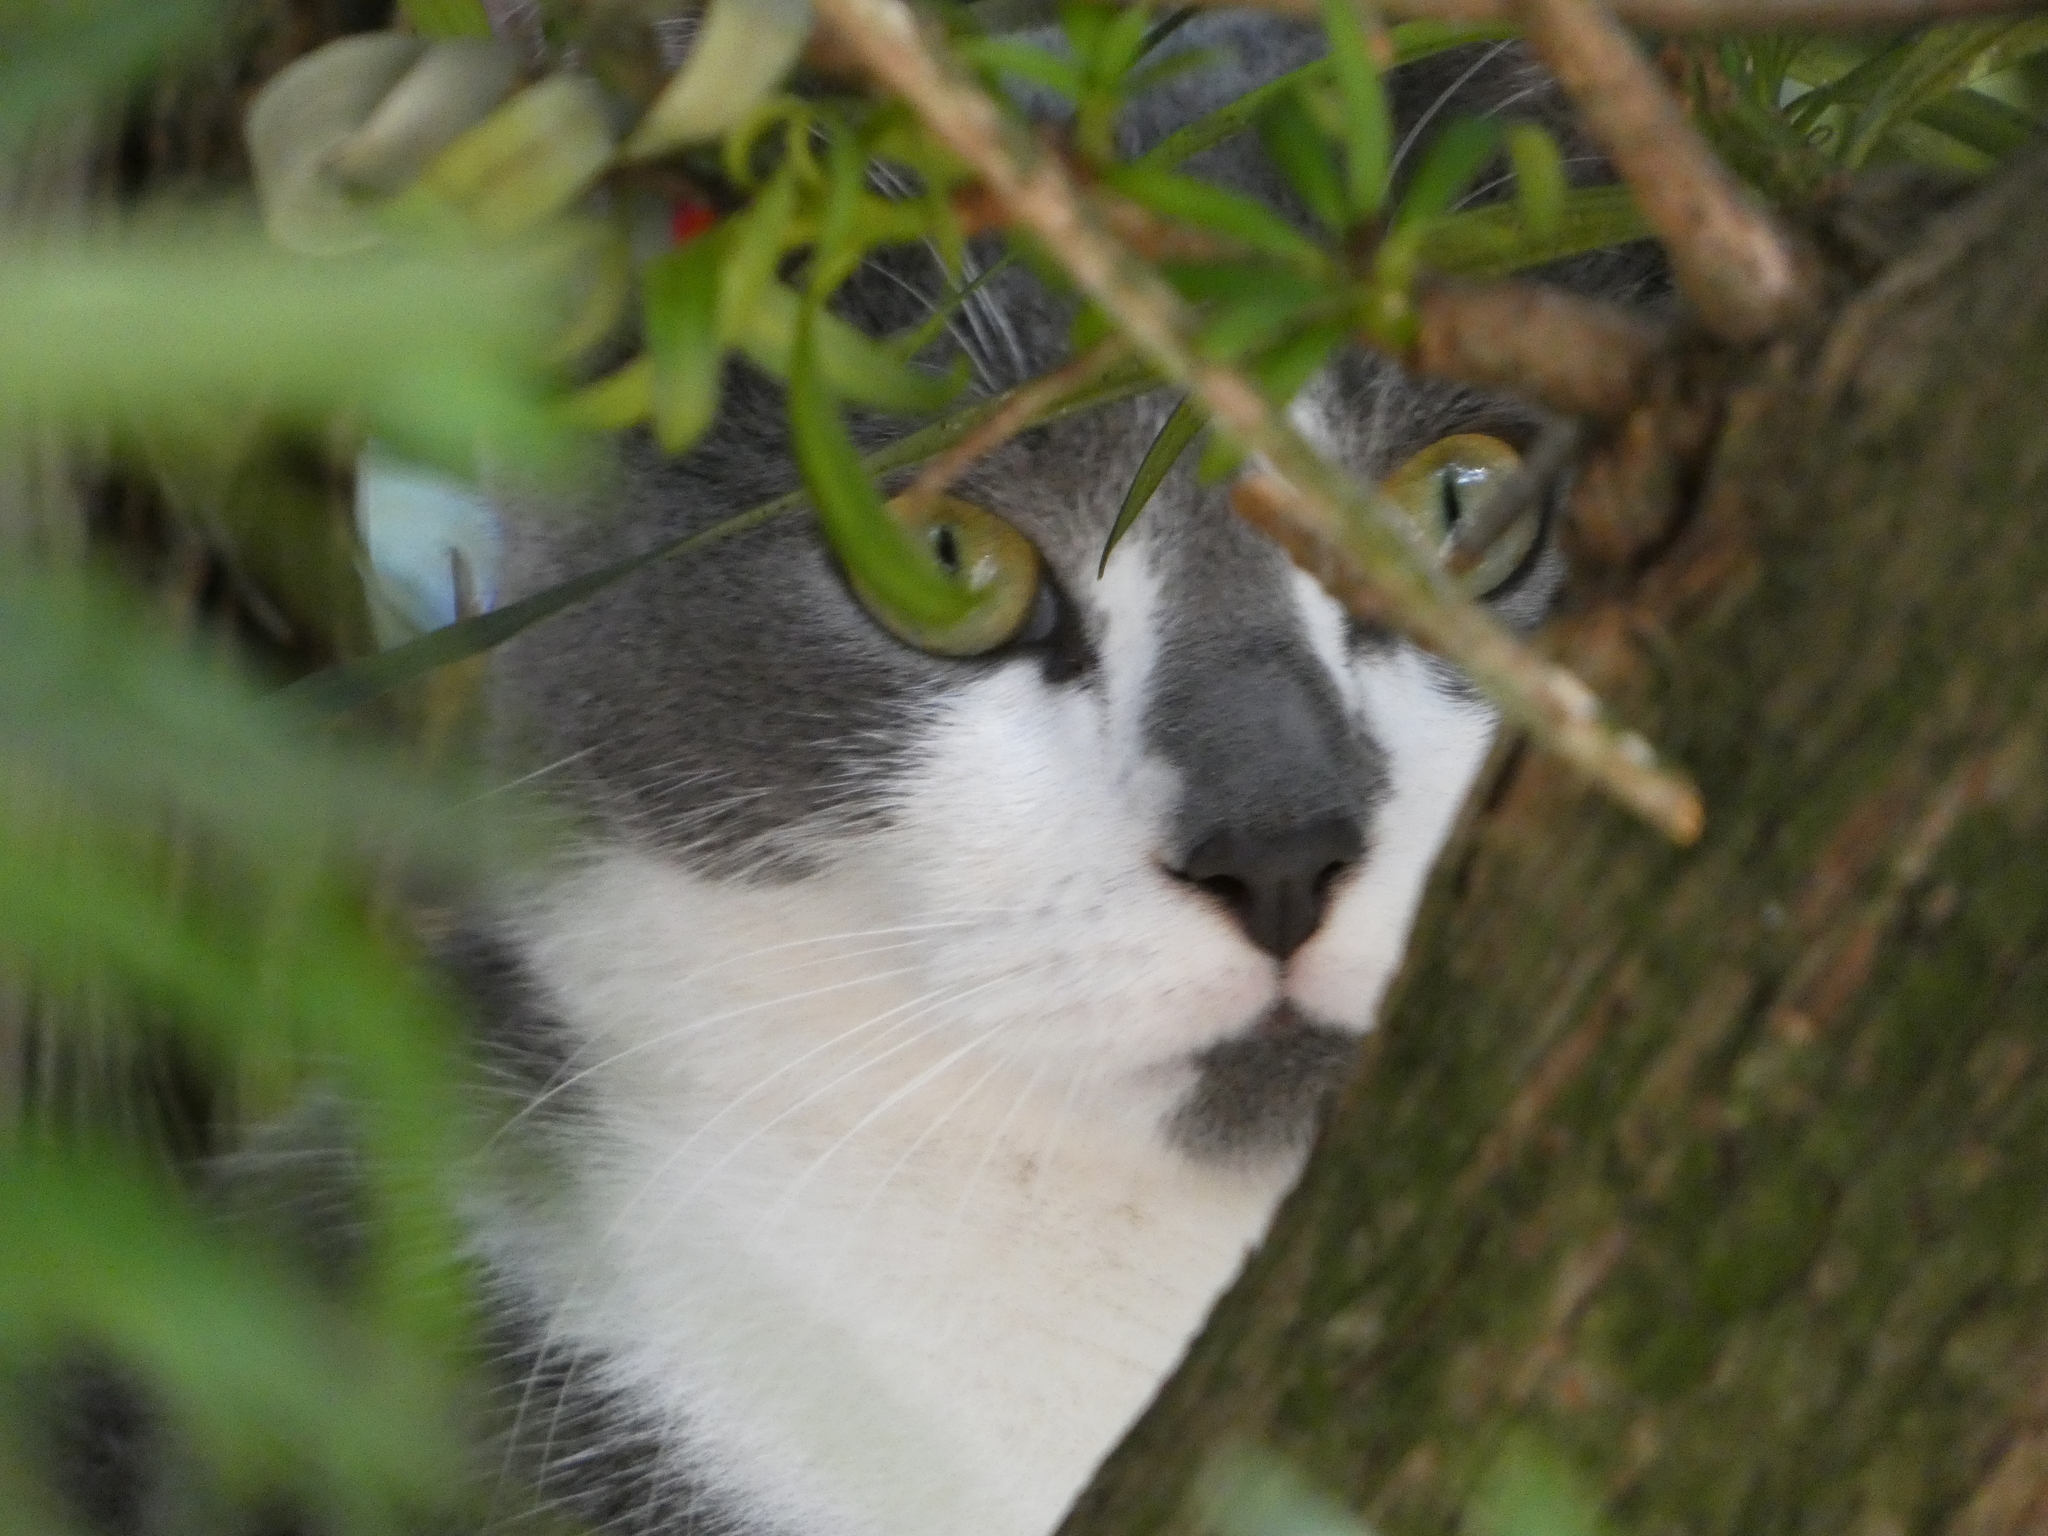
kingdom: Animalia
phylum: Chordata
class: Mammalia
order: Carnivora
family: Felidae
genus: Felis
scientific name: Felis catus
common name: Domestic cat
